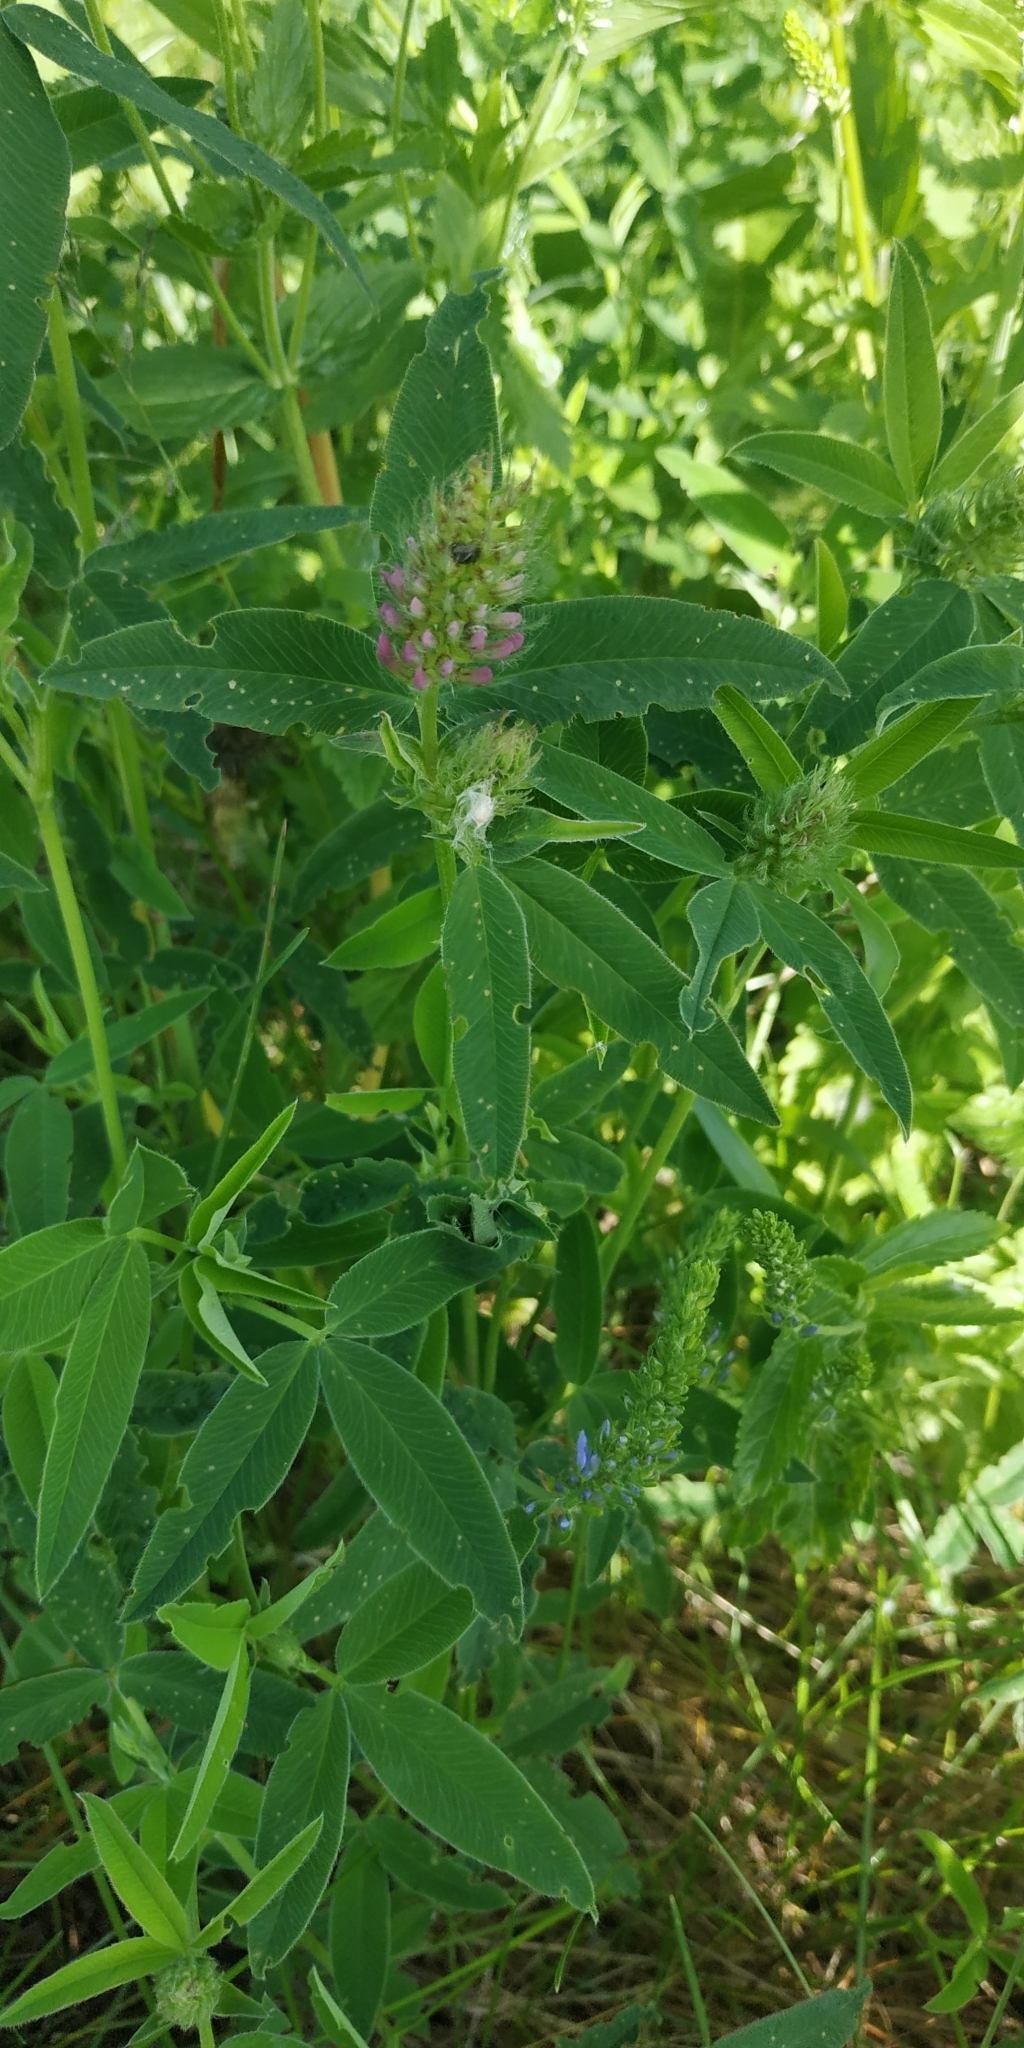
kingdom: Plantae
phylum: Tracheophyta
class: Magnoliopsida
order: Fabales
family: Fabaceae
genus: Trifolium
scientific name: Trifolium medium
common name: Zigzag clover
